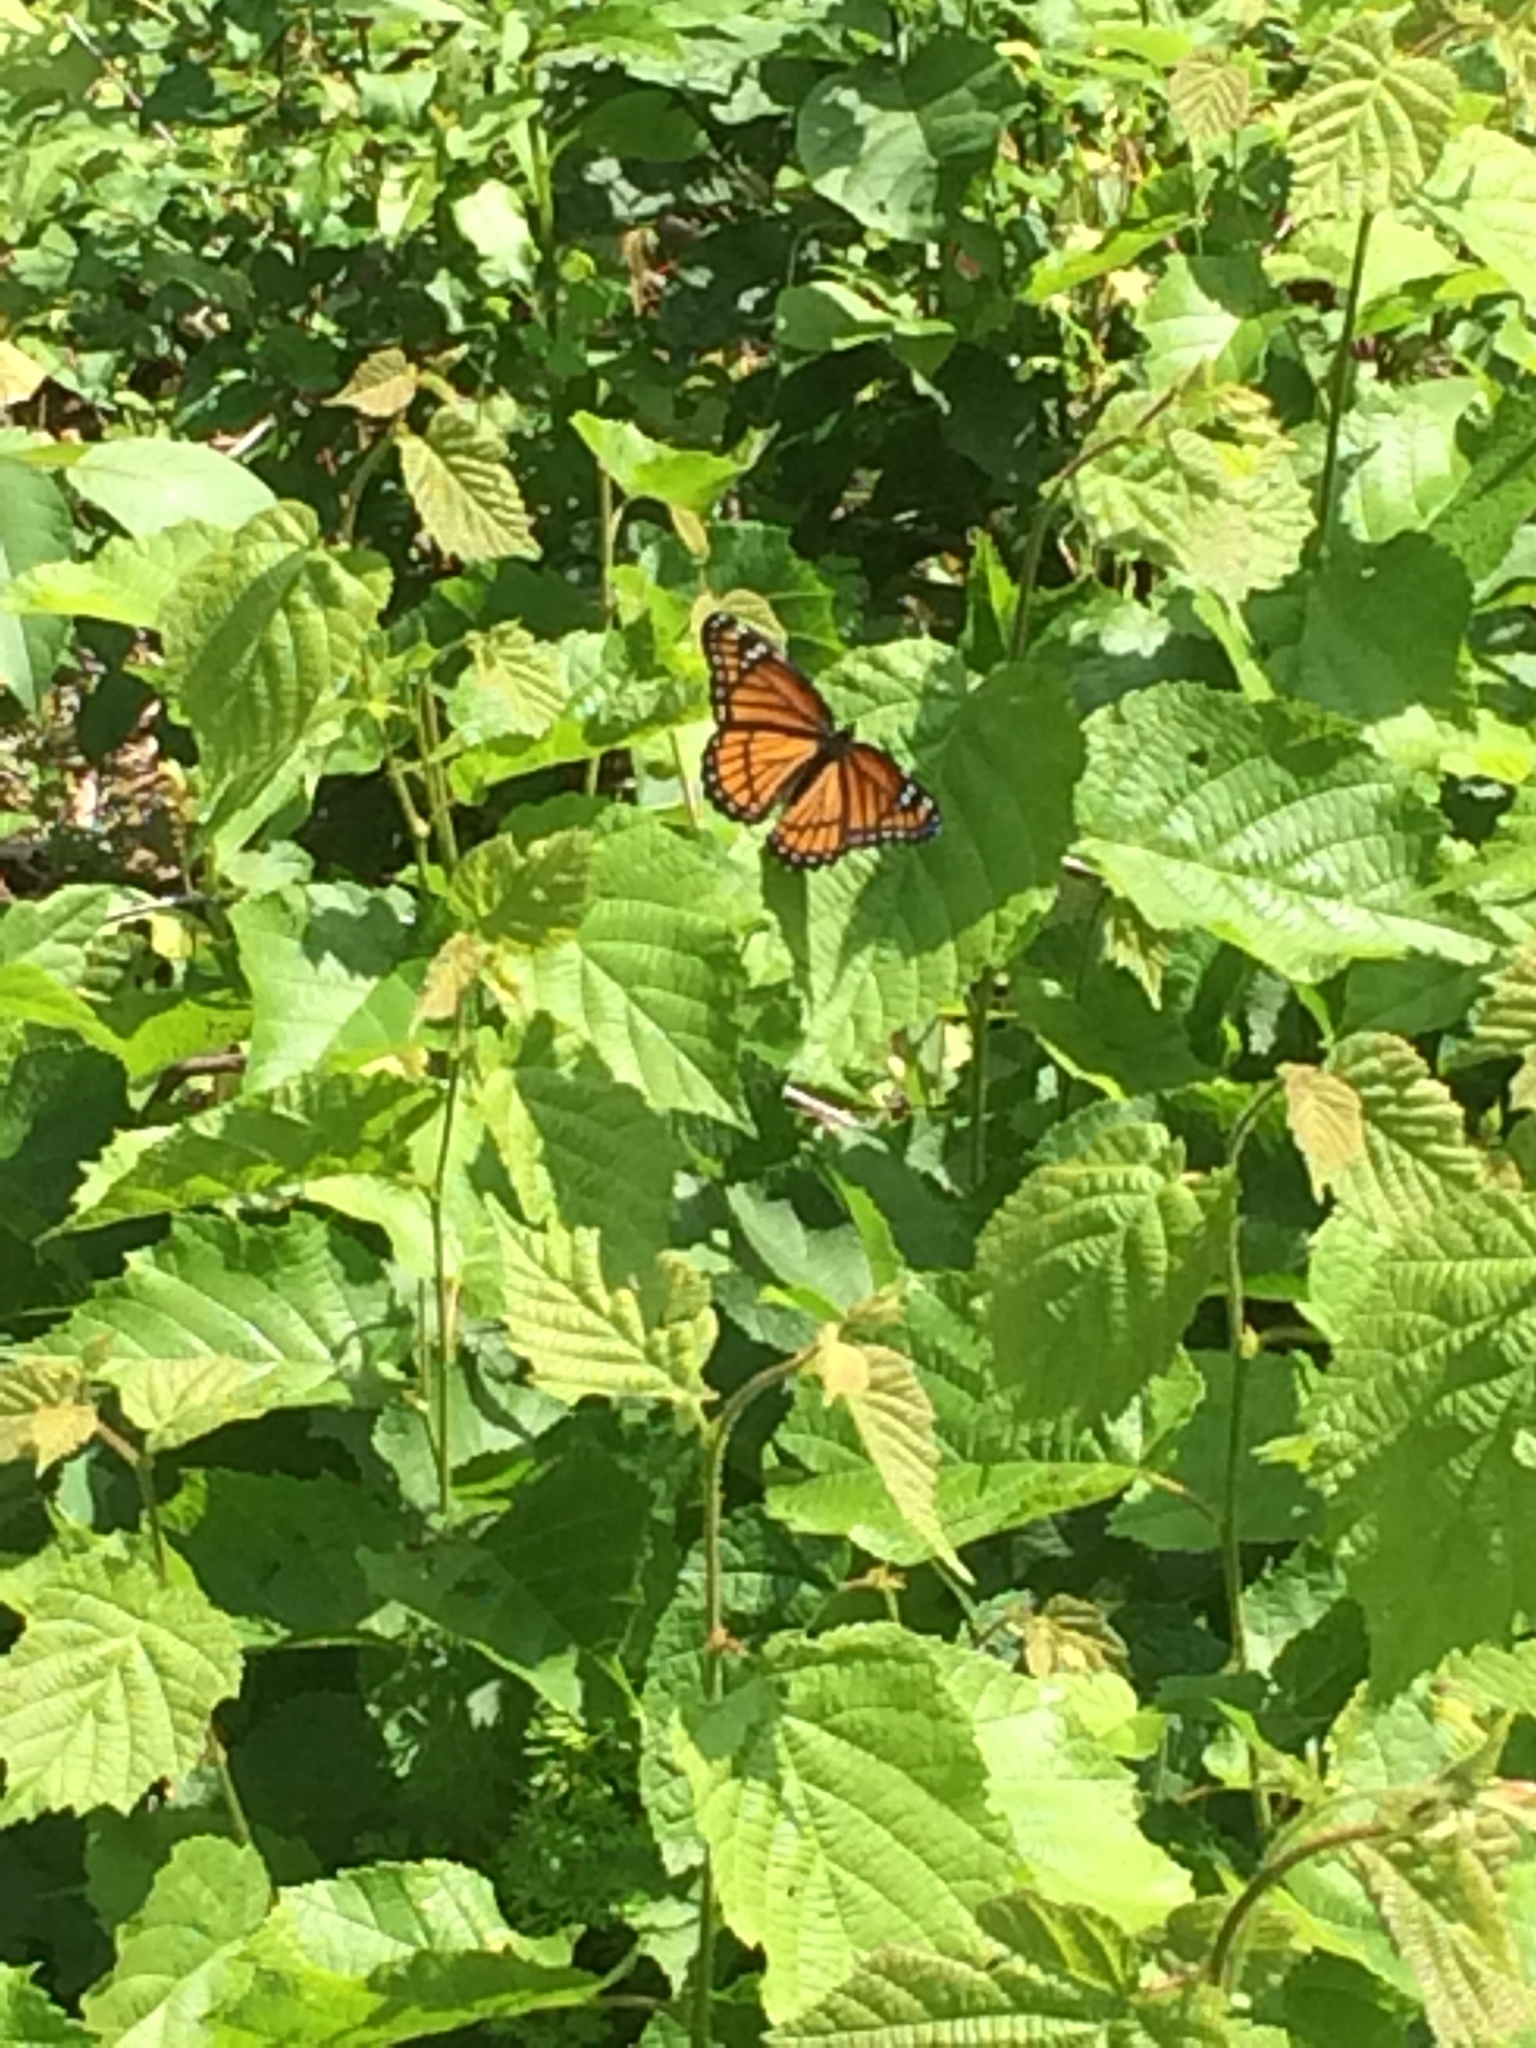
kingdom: Animalia
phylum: Arthropoda
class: Insecta
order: Lepidoptera
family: Nymphalidae
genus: Limenitis
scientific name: Limenitis archippus
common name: Viceroy
